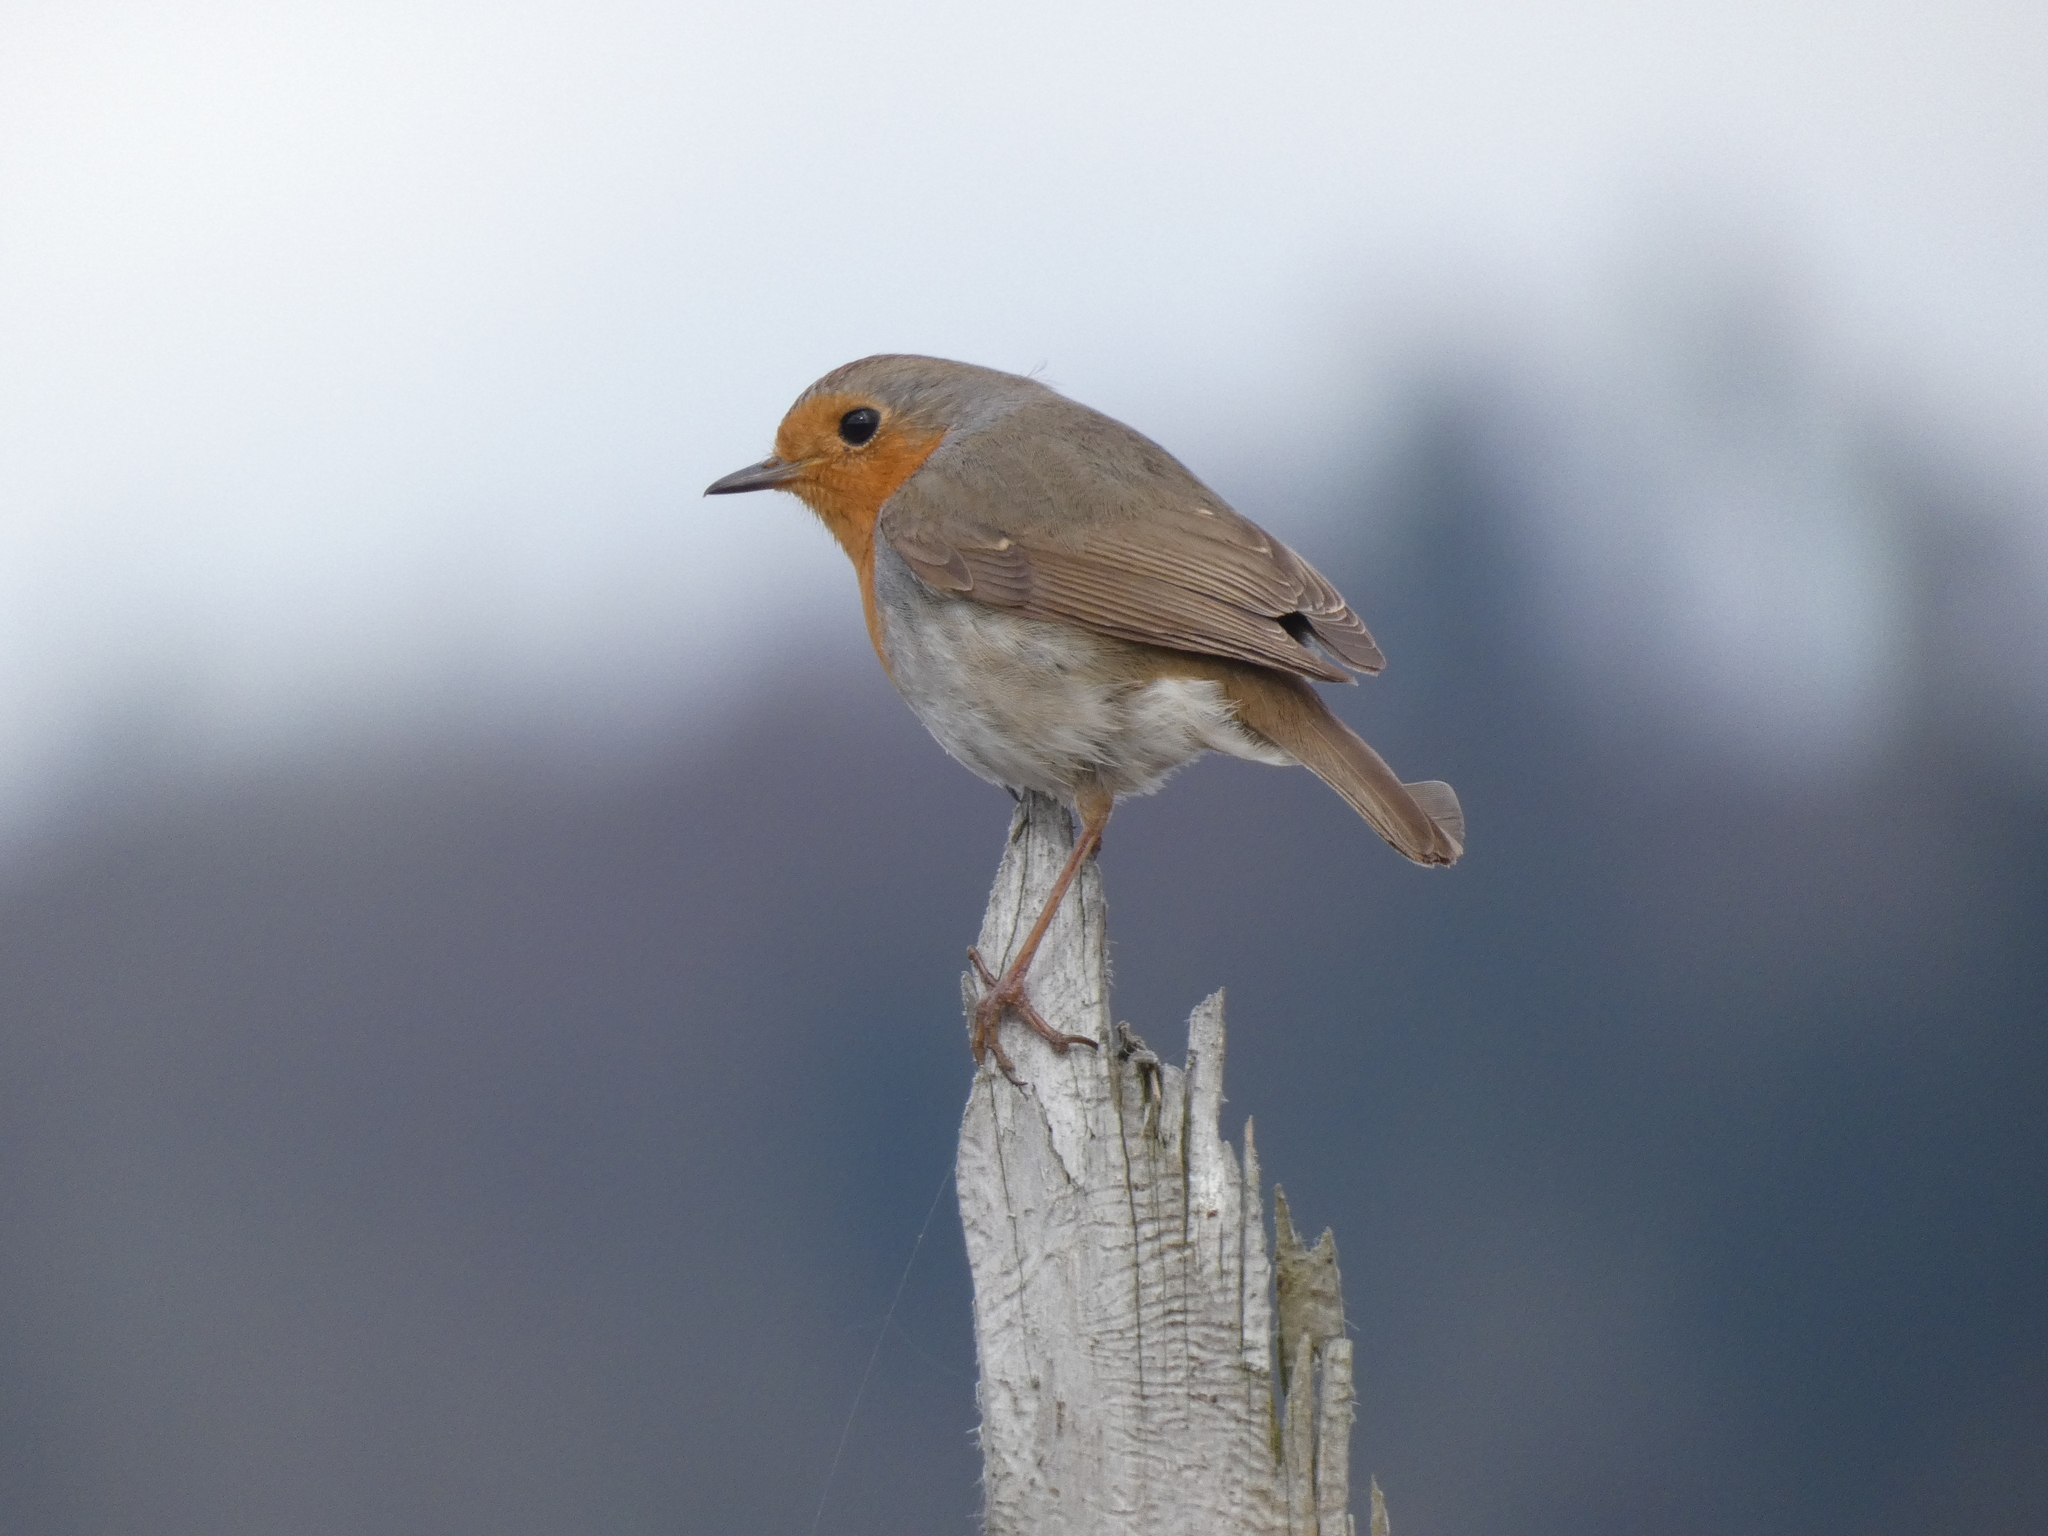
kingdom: Animalia
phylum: Chordata
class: Aves
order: Passeriformes
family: Muscicapidae
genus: Erithacus
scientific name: Erithacus rubecula
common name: European robin
